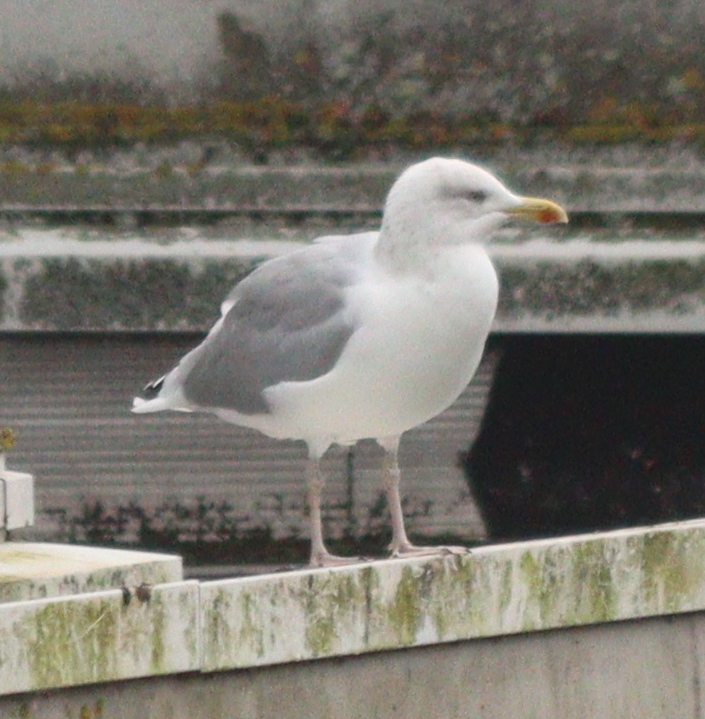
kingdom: Animalia
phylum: Chordata
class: Aves
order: Charadriiformes
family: Laridae
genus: Larus
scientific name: Larus argentatus
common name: Herring gull
